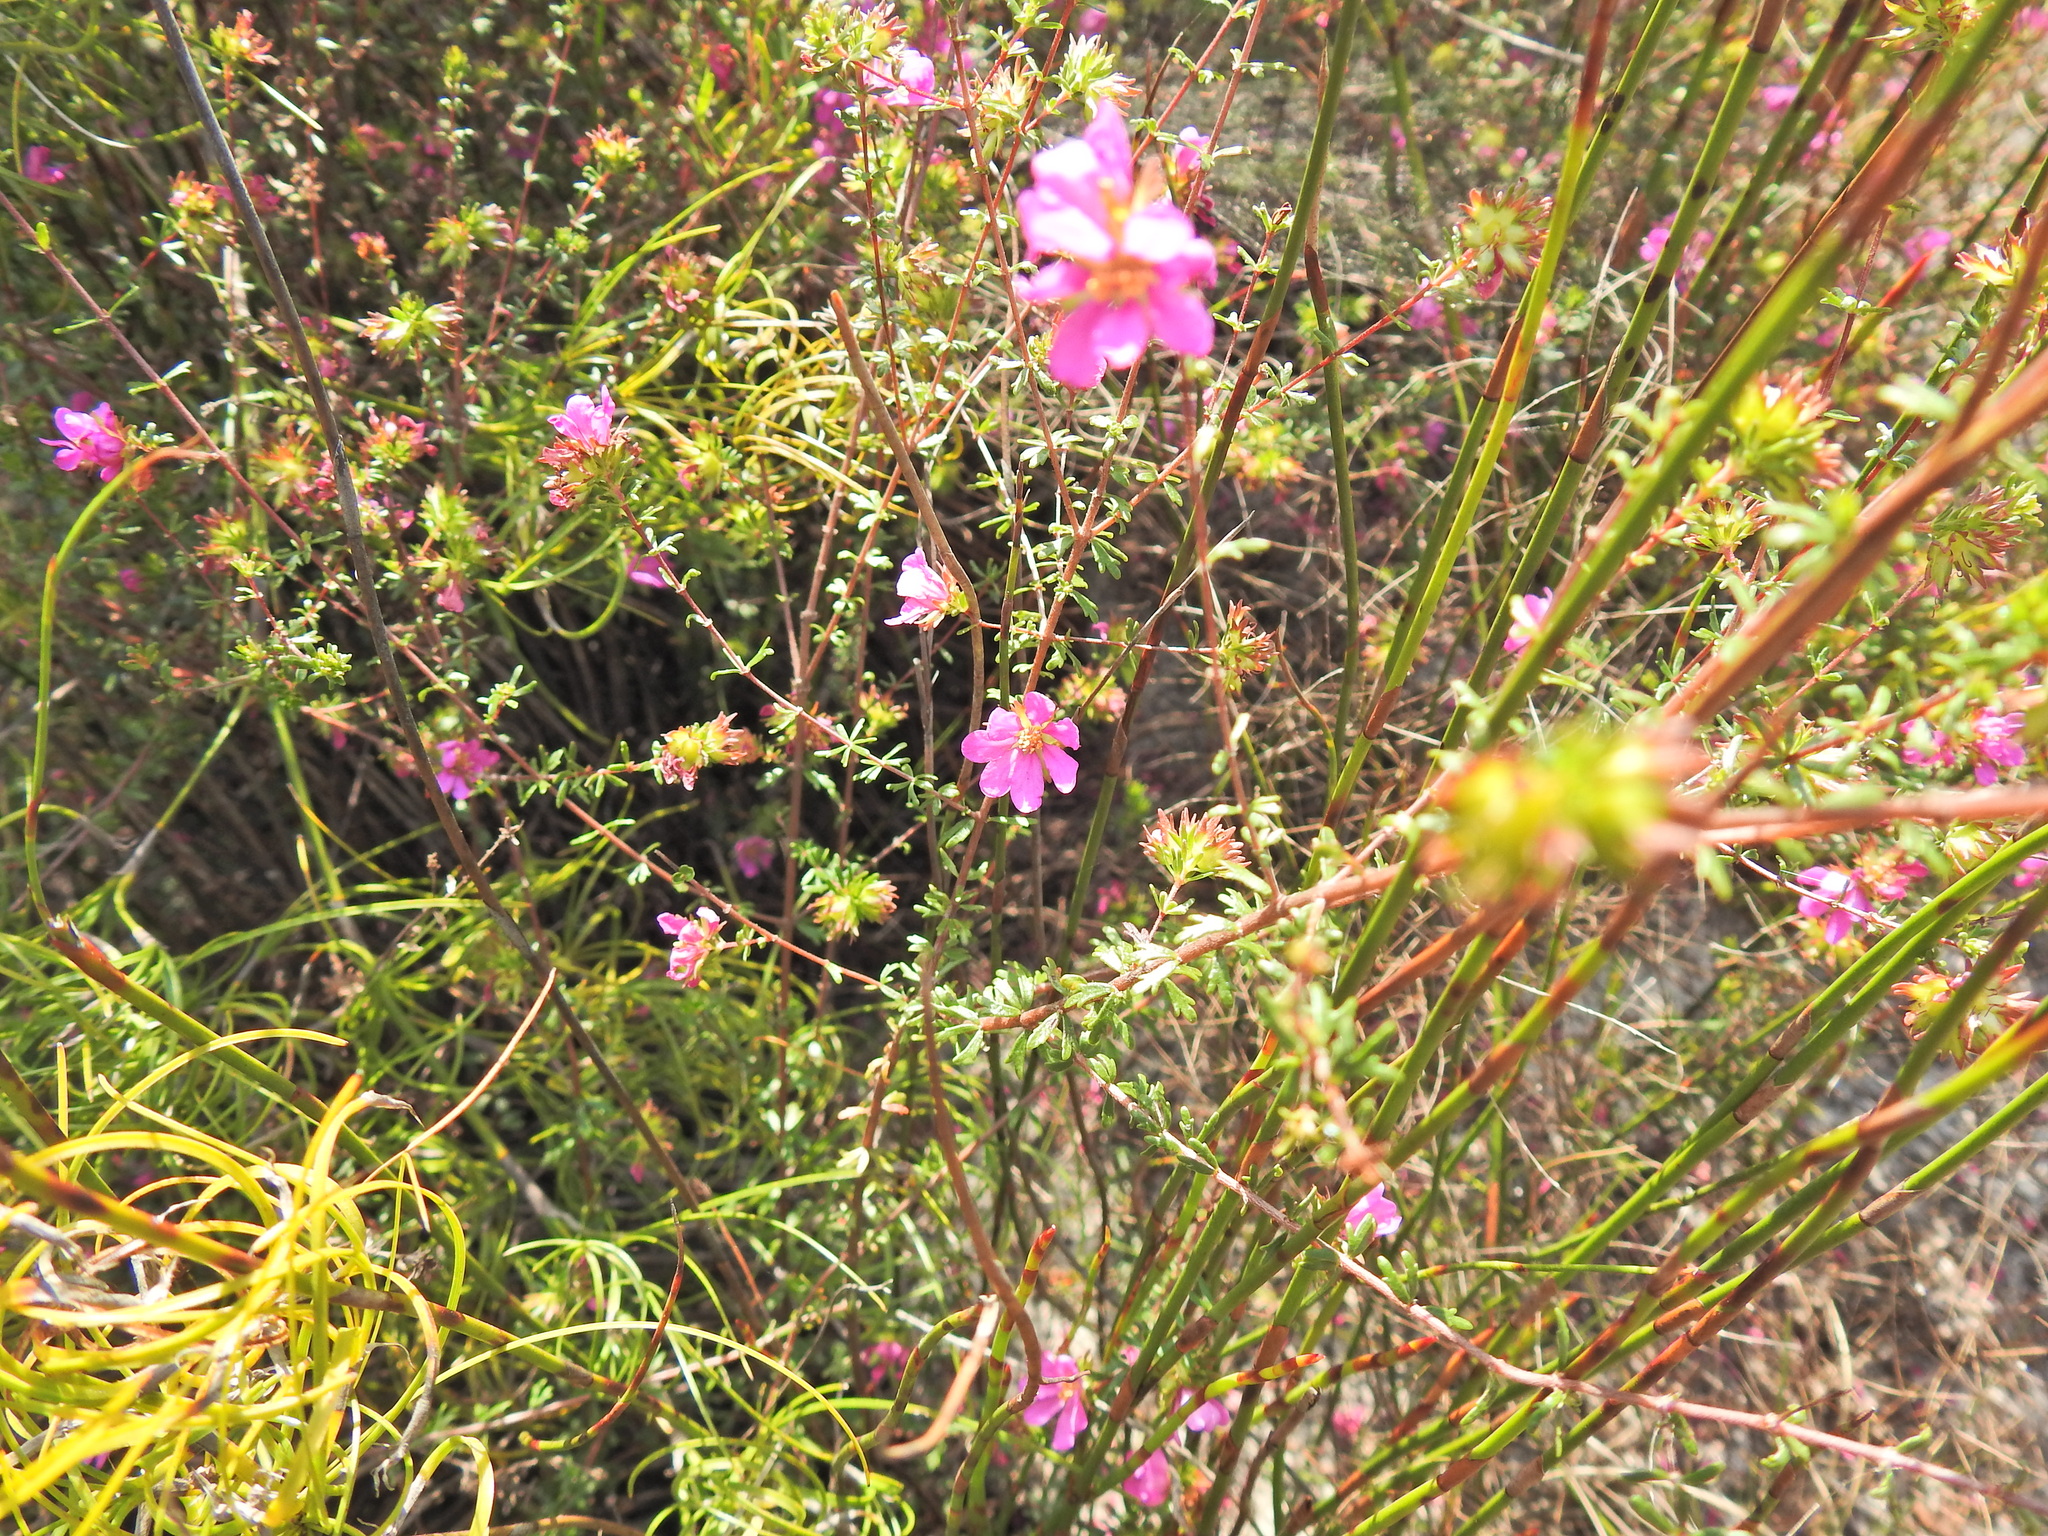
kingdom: Plantae
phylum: Tracheophyta
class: Magnoliopsida
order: Oxalidales
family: Cunoniaceae
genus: Bauera
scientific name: Bauera capitata
